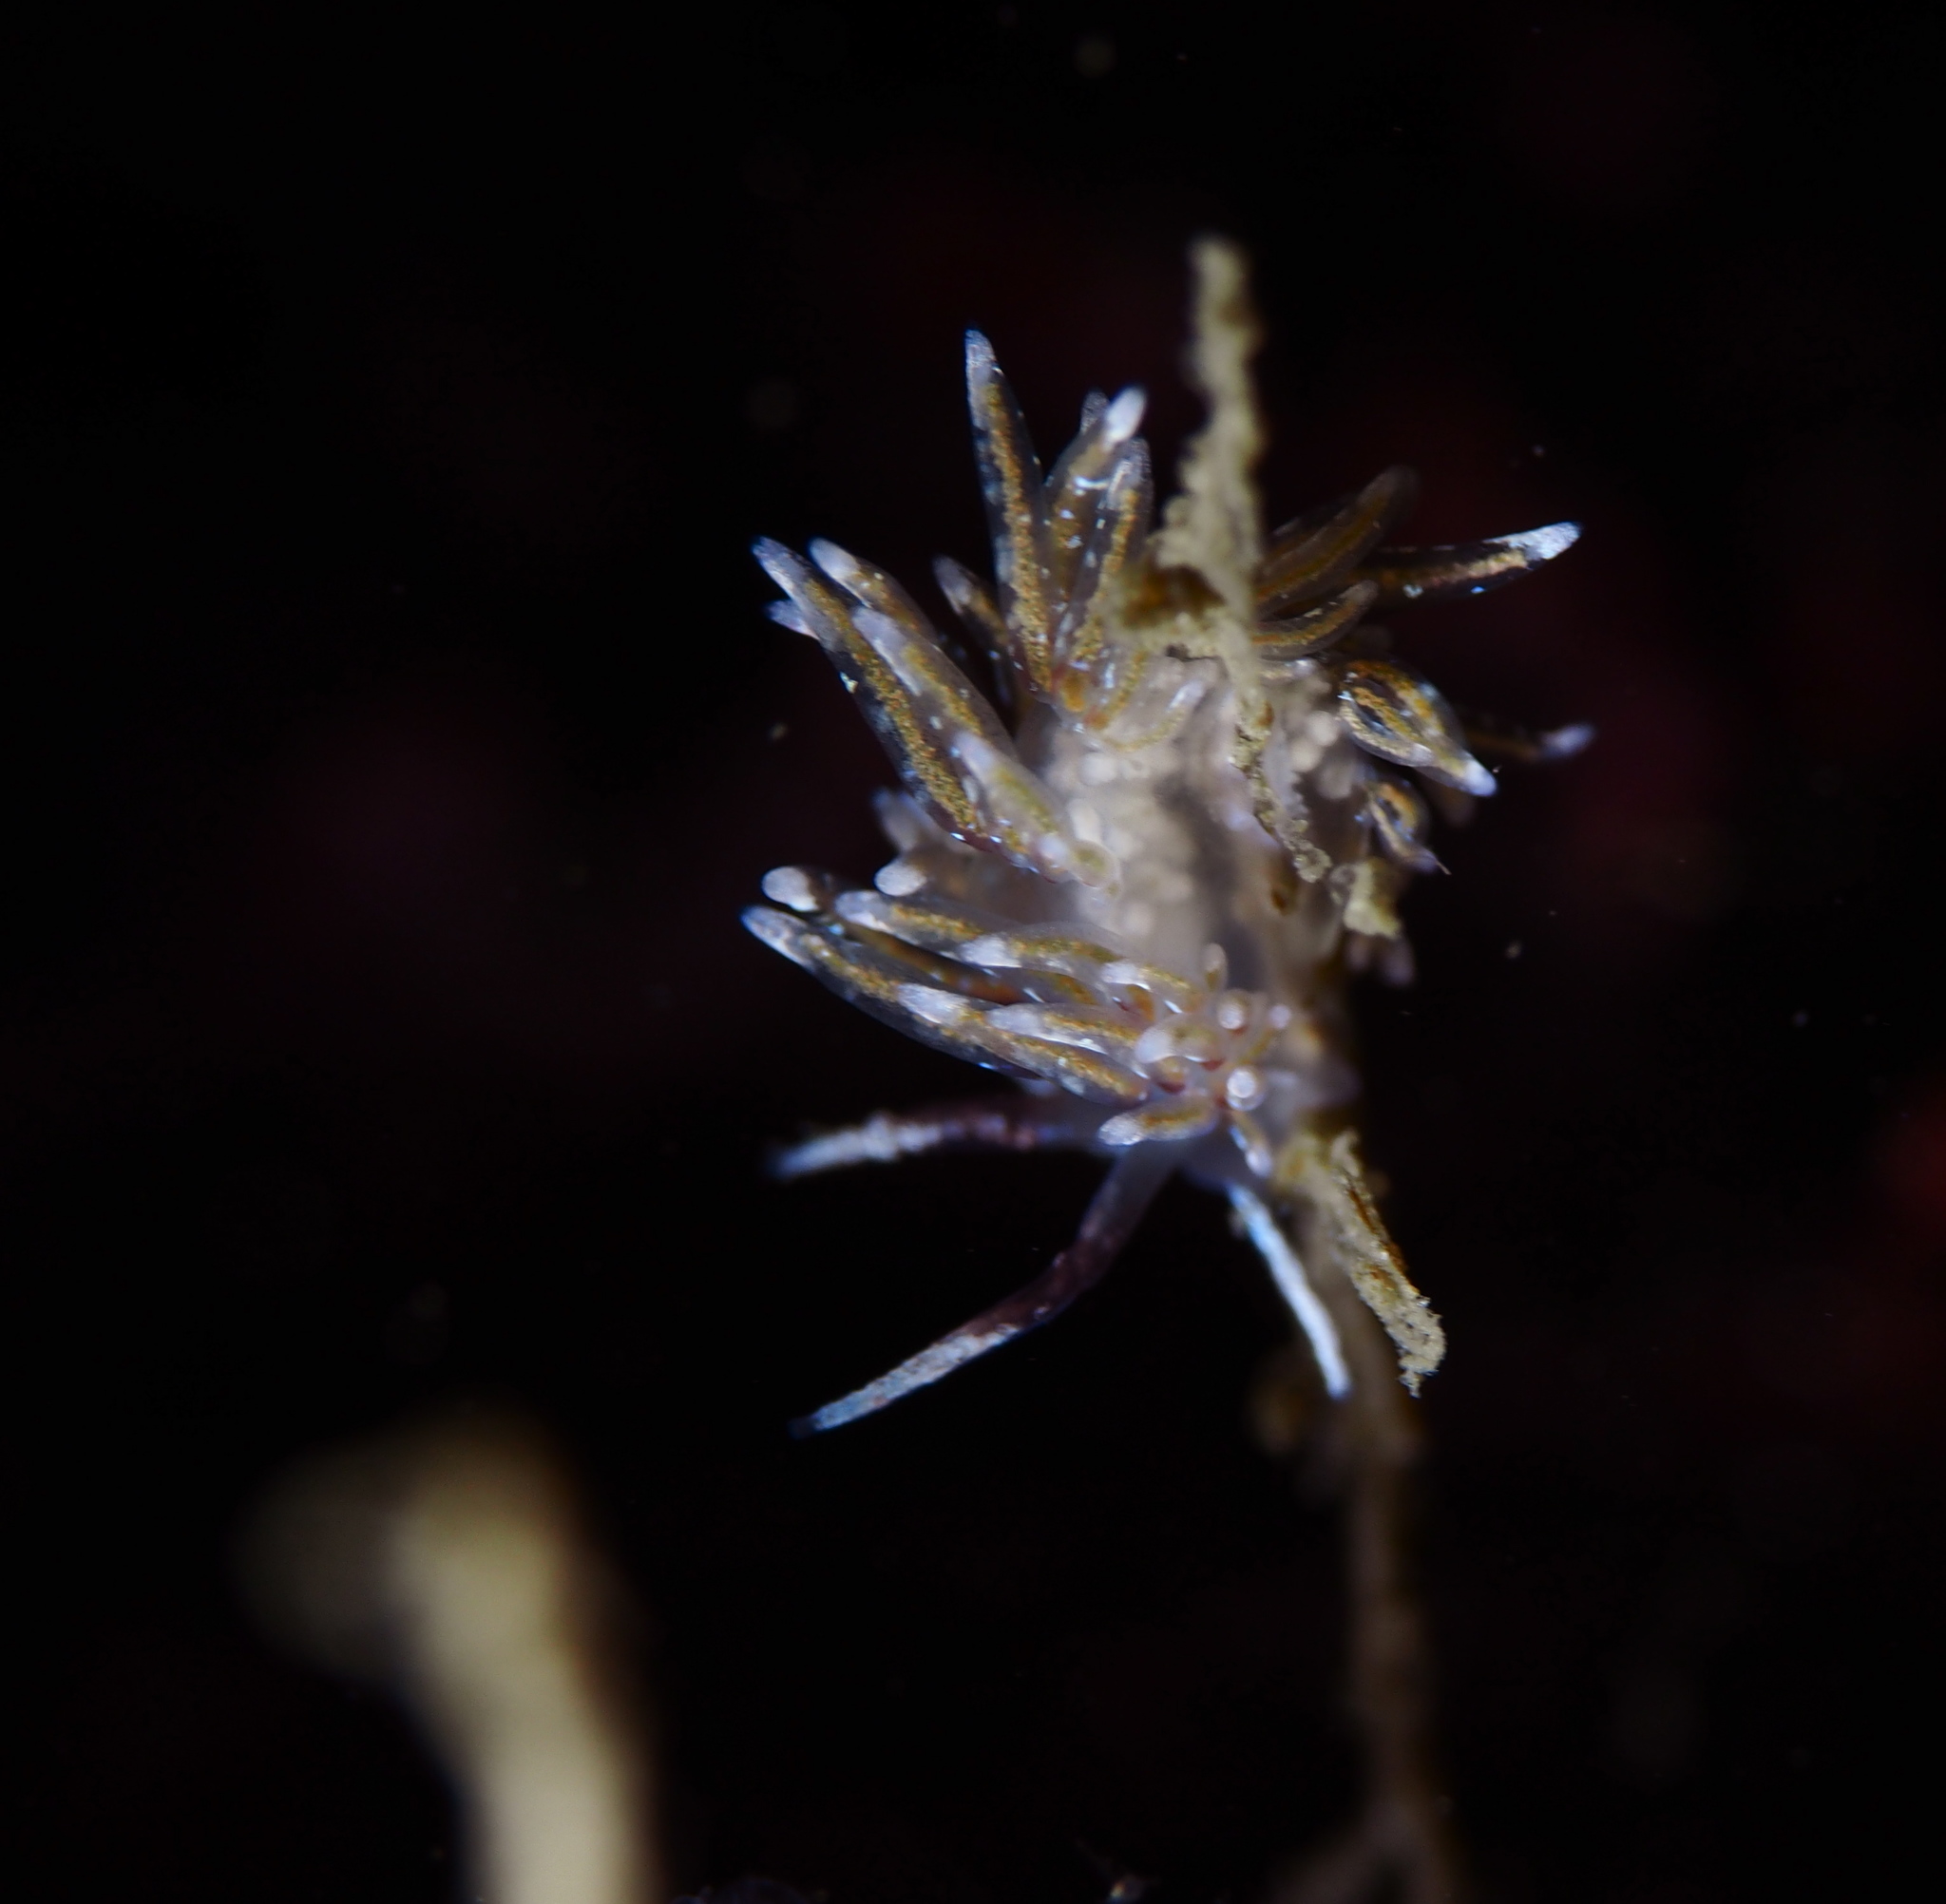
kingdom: Animalia
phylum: Mollusca
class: Gastropoda
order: Nudibranchia
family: Trinchesiidae
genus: Rubramoena
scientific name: Rubramoena rubescens
